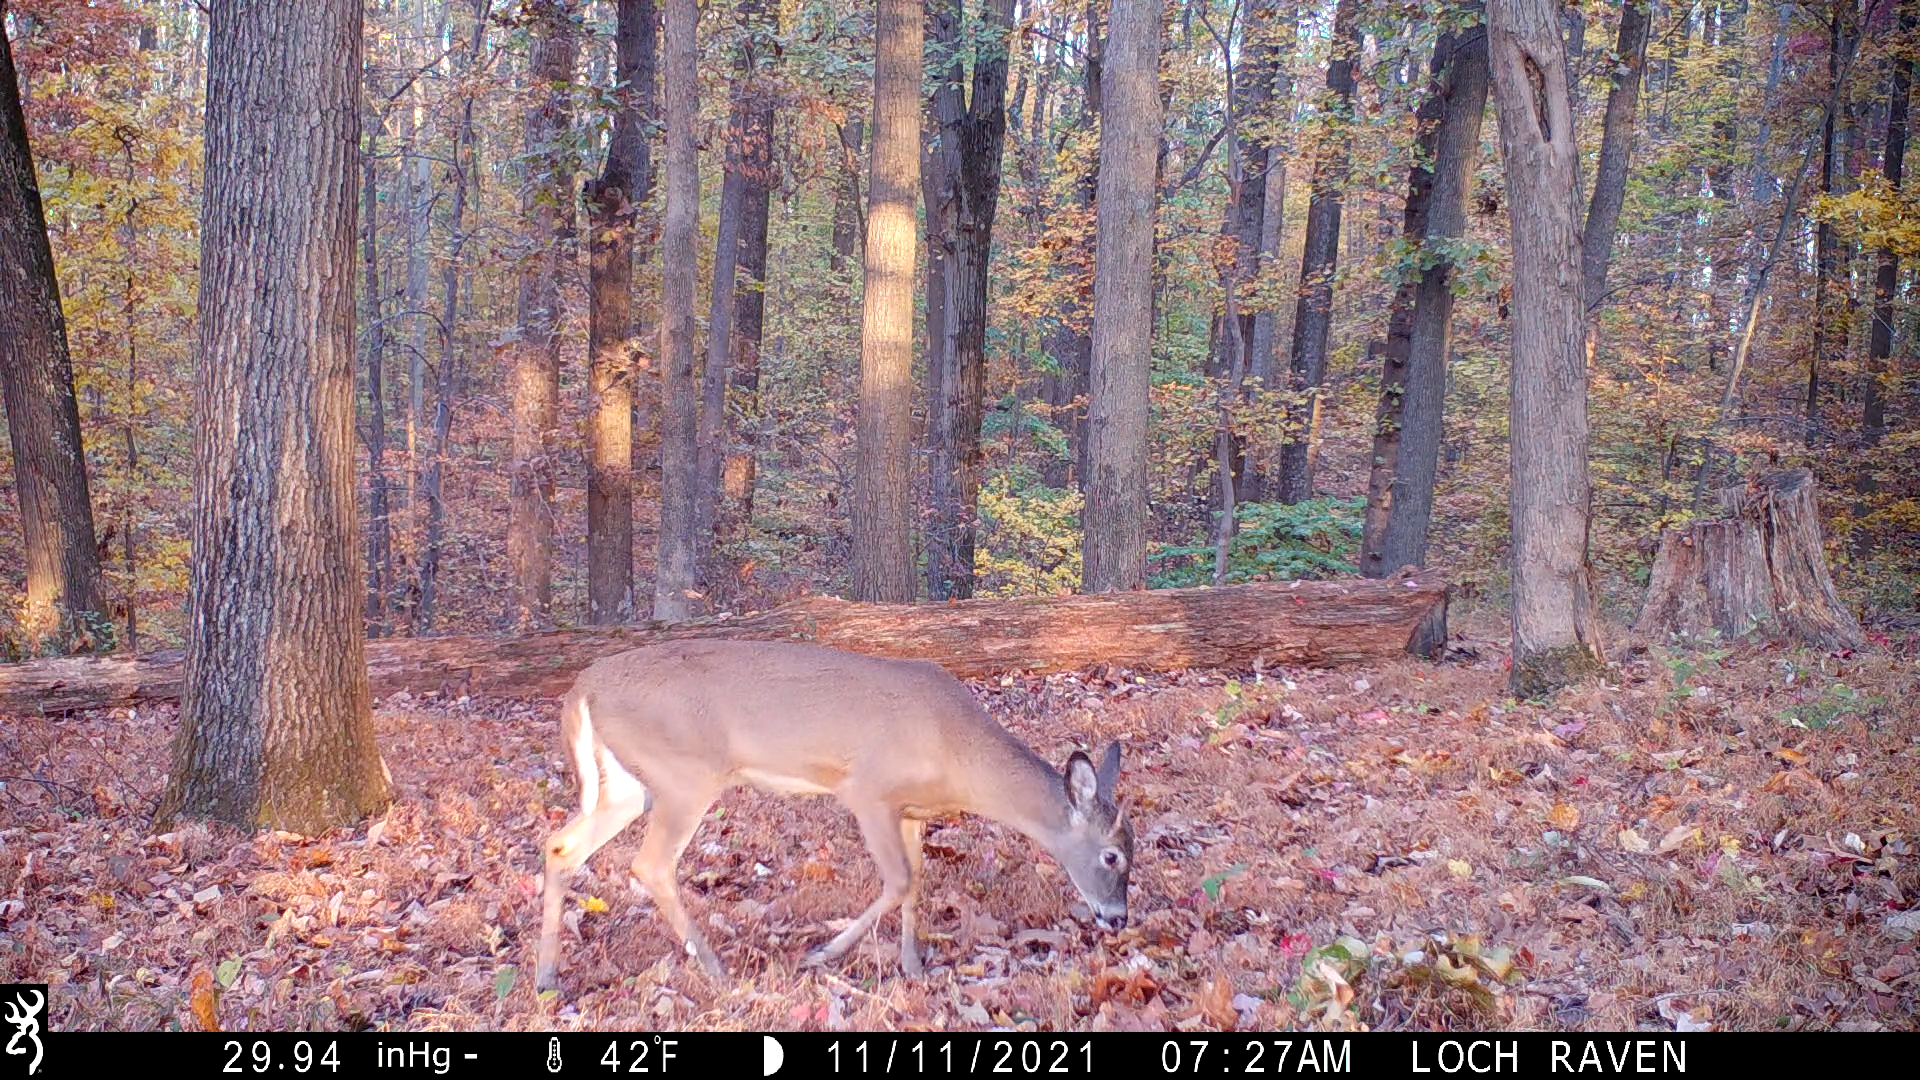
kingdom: Animalia
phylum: Chordata
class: Mammalia
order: Artiodactyla
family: Cervidae
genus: Odocoileus
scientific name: Odocoileus virginianus
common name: White-tailed deer
